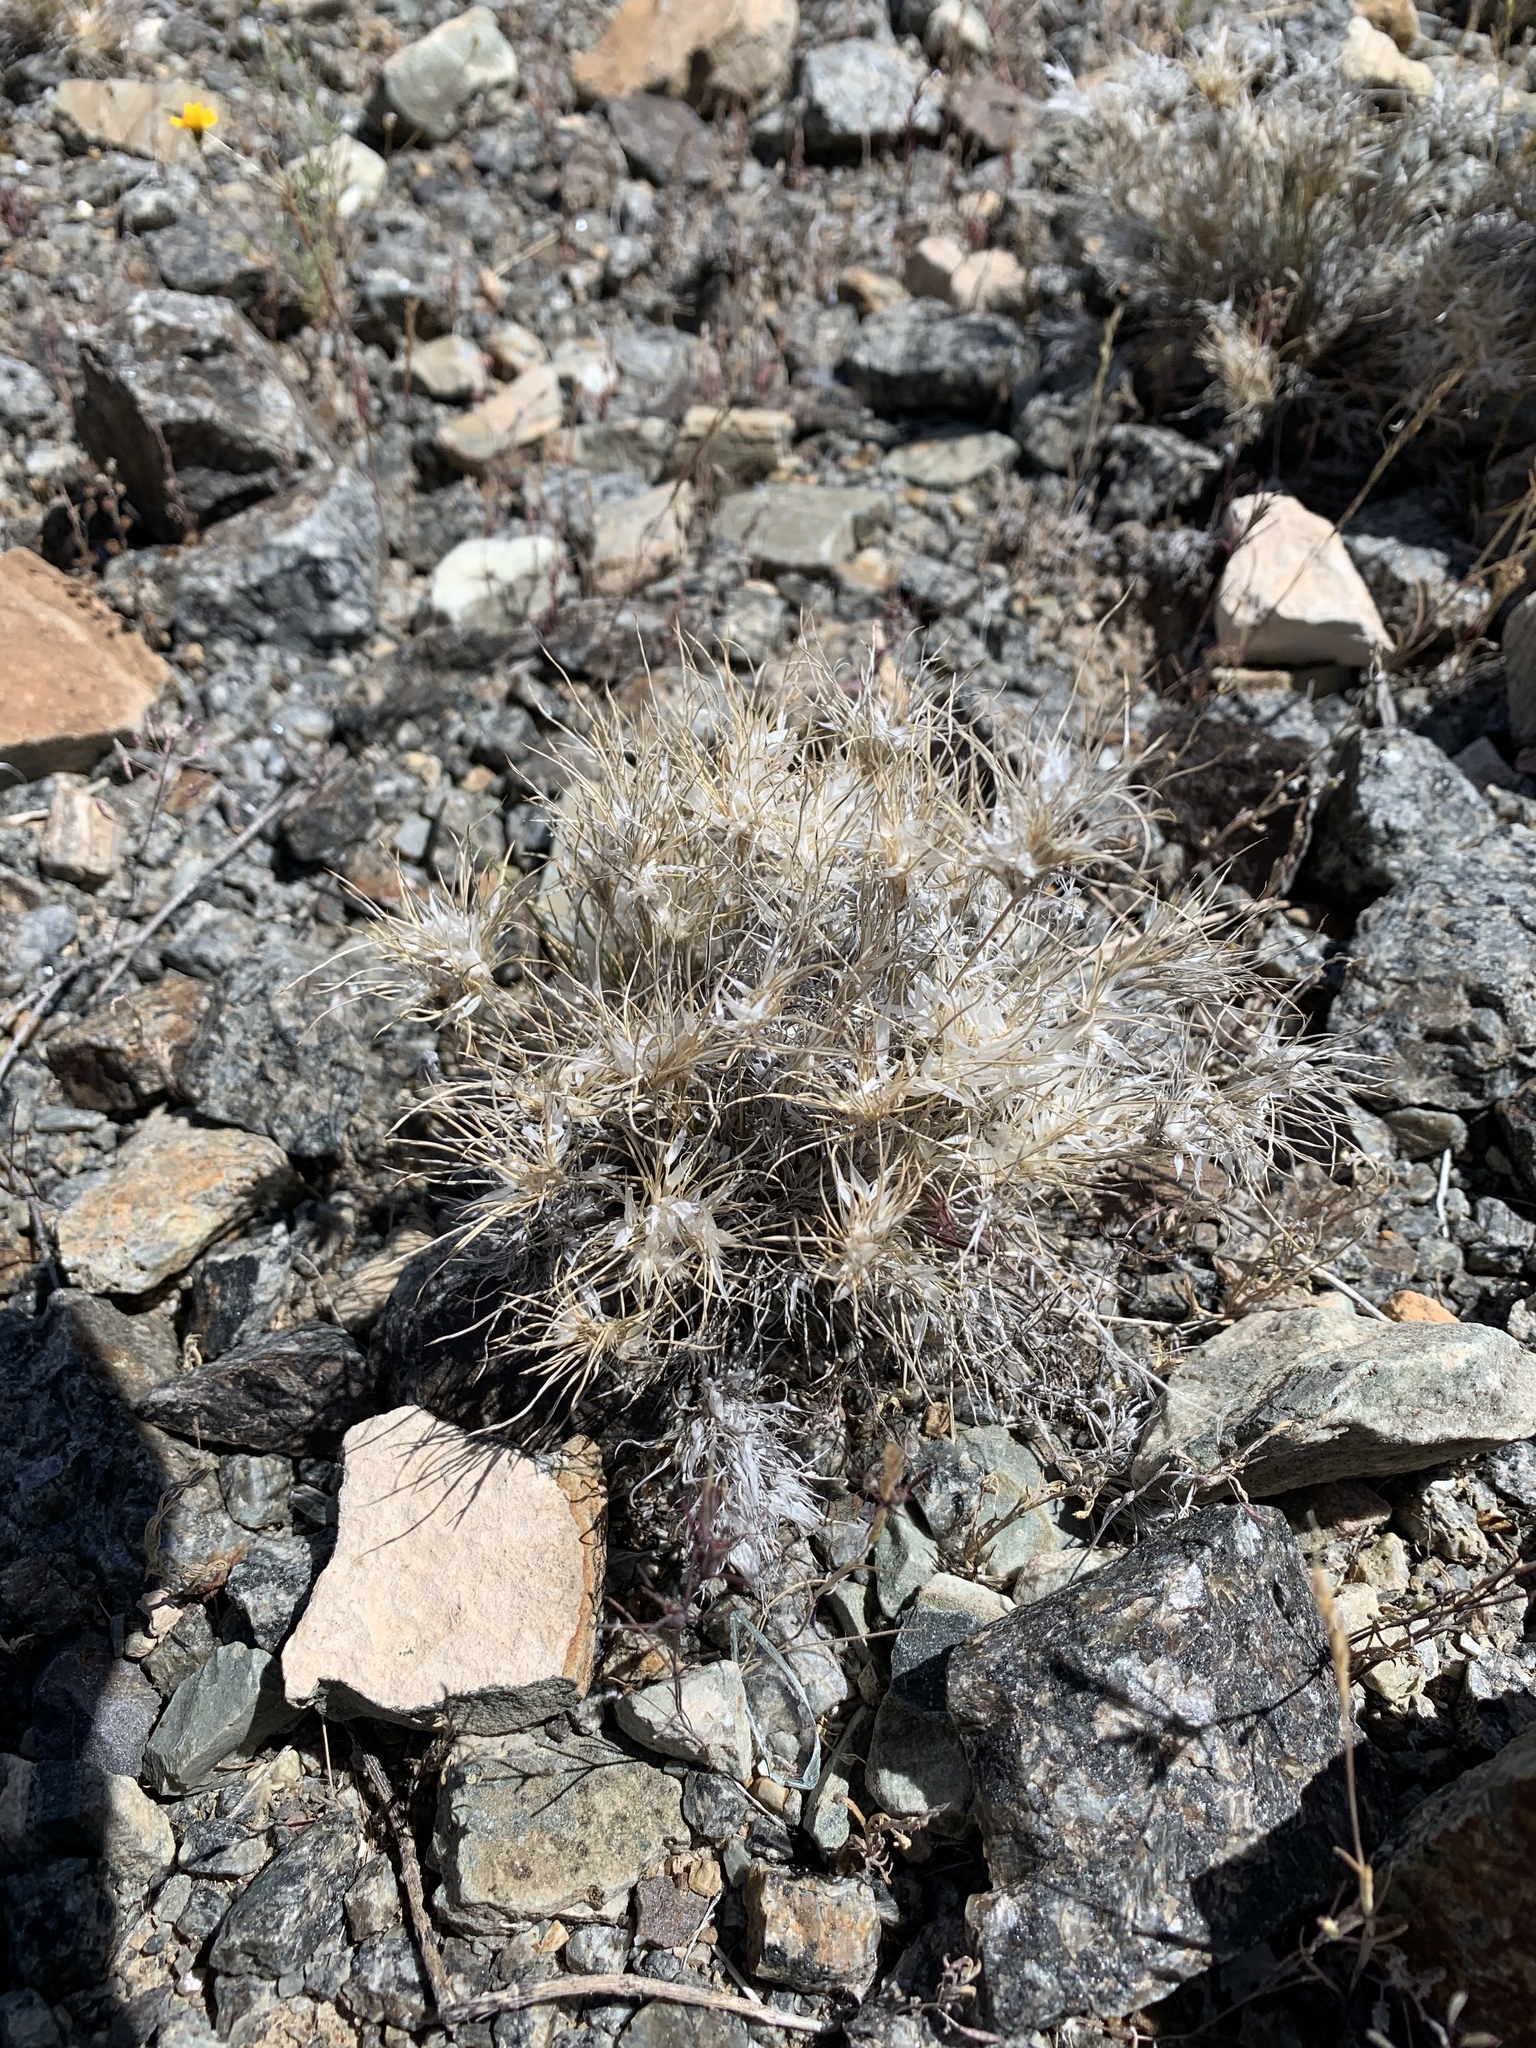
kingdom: Plantae
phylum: Tracheophyta
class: Liliopsida
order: Poales
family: Poaceae
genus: Dasyochloa
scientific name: Dasyochloa pulchella
